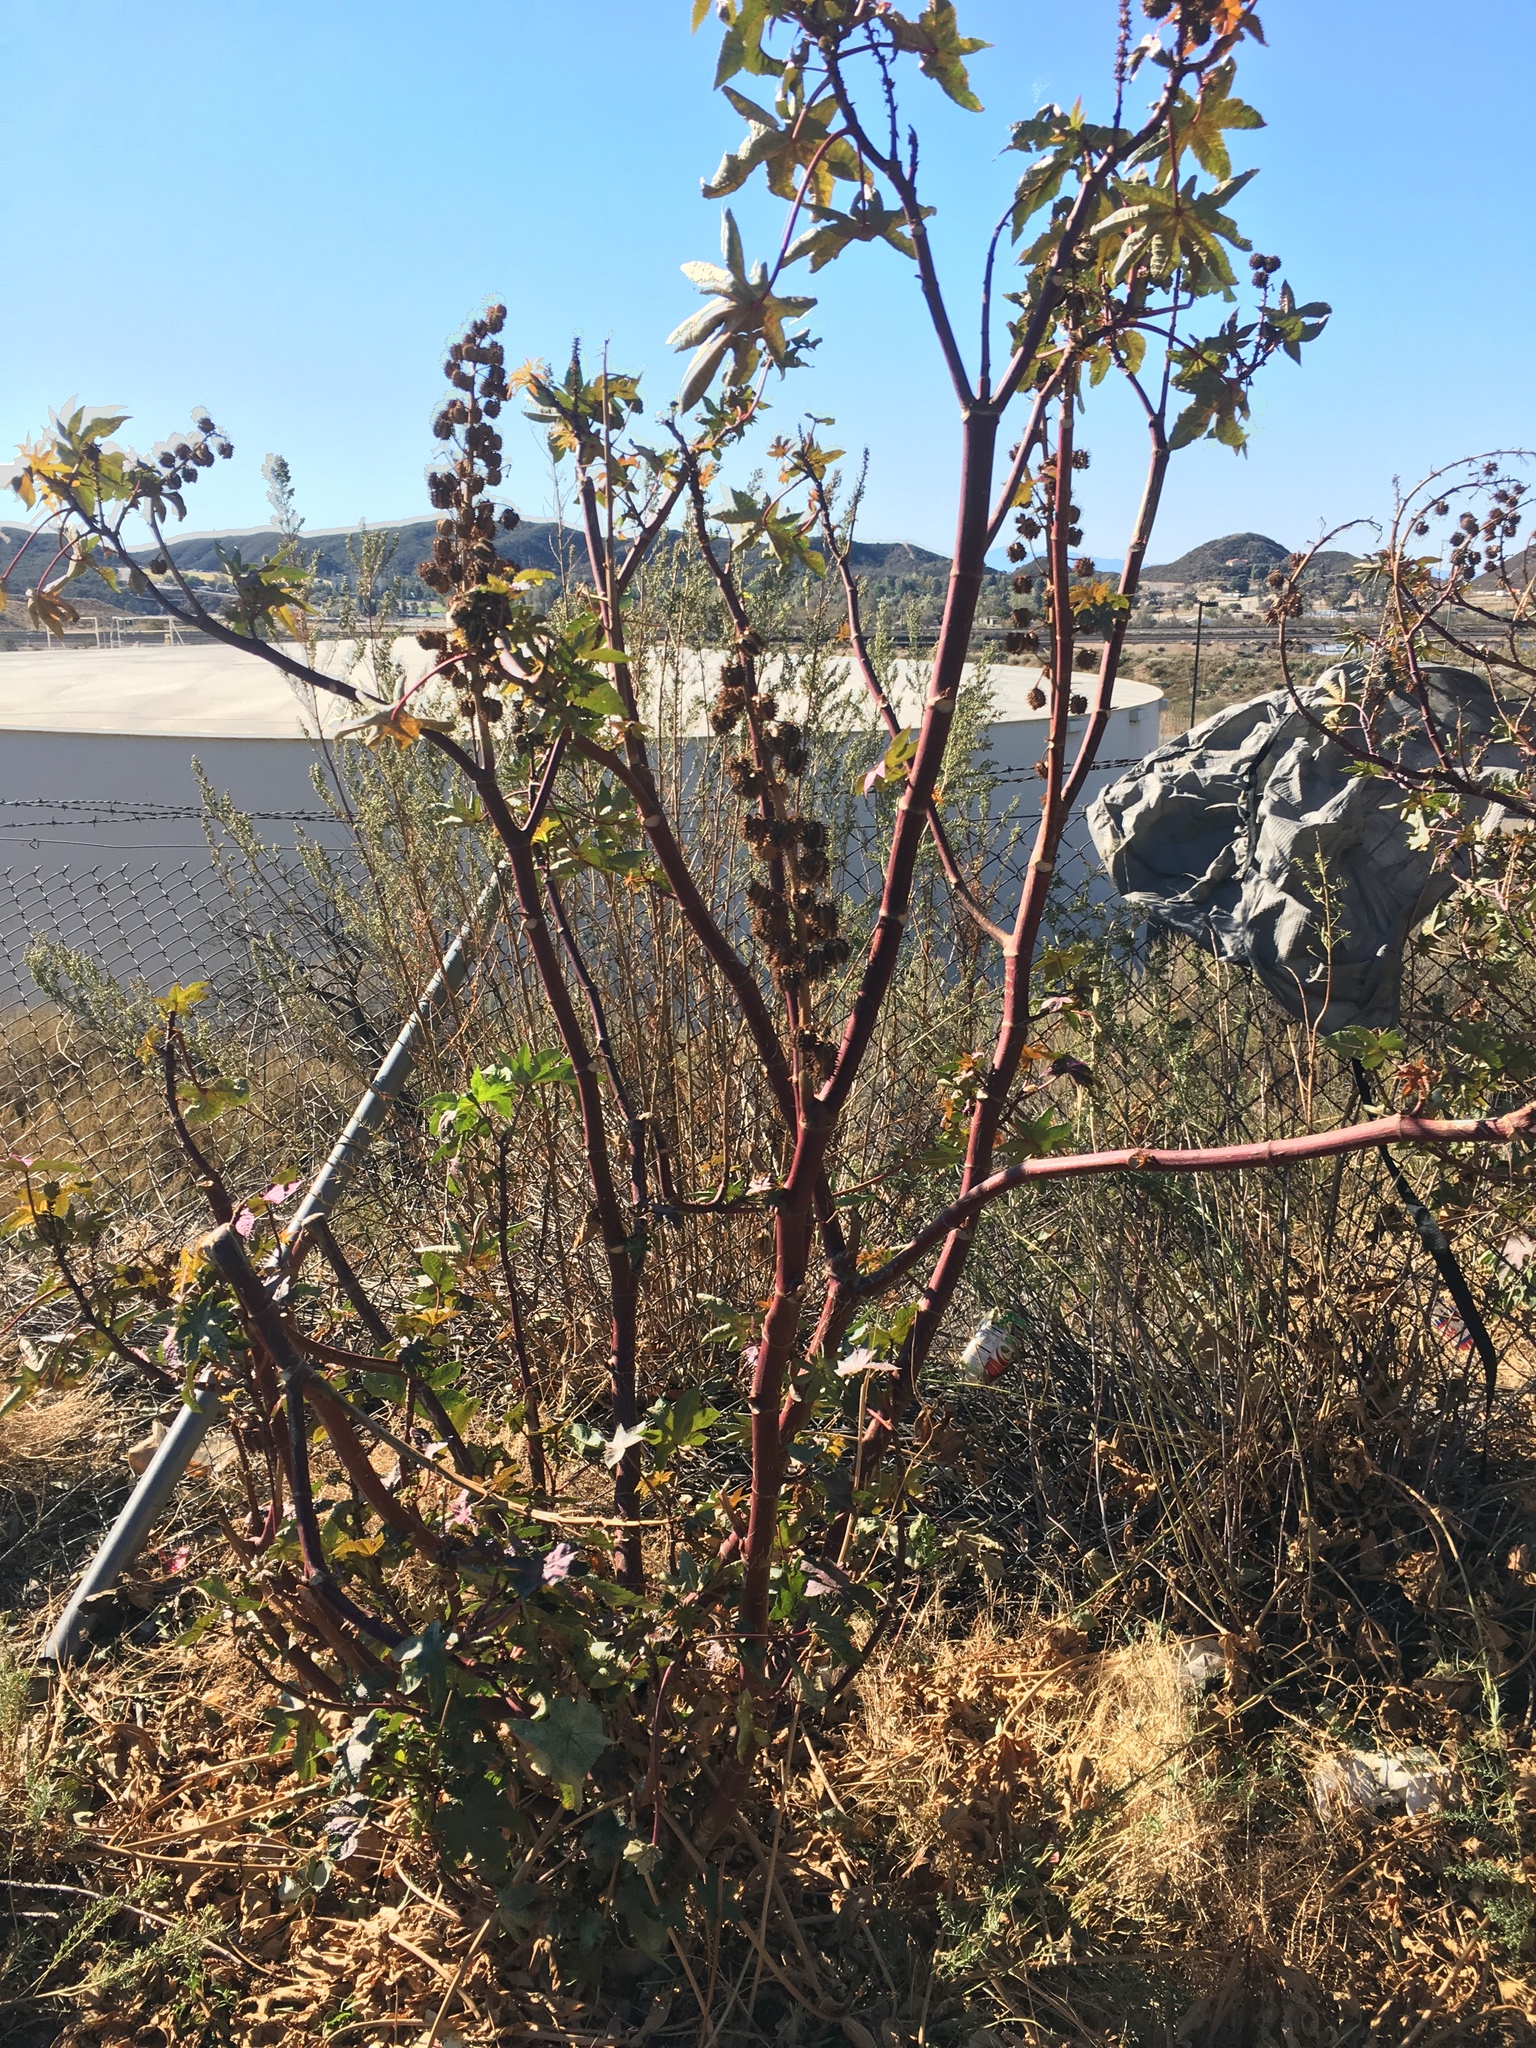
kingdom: Plantae
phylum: Tracheophyta
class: Magnoliopsida
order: Malpighiales
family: Euphorbiaceae
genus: Ricinus
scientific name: Ricinus communis
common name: Castor-oil-plant
